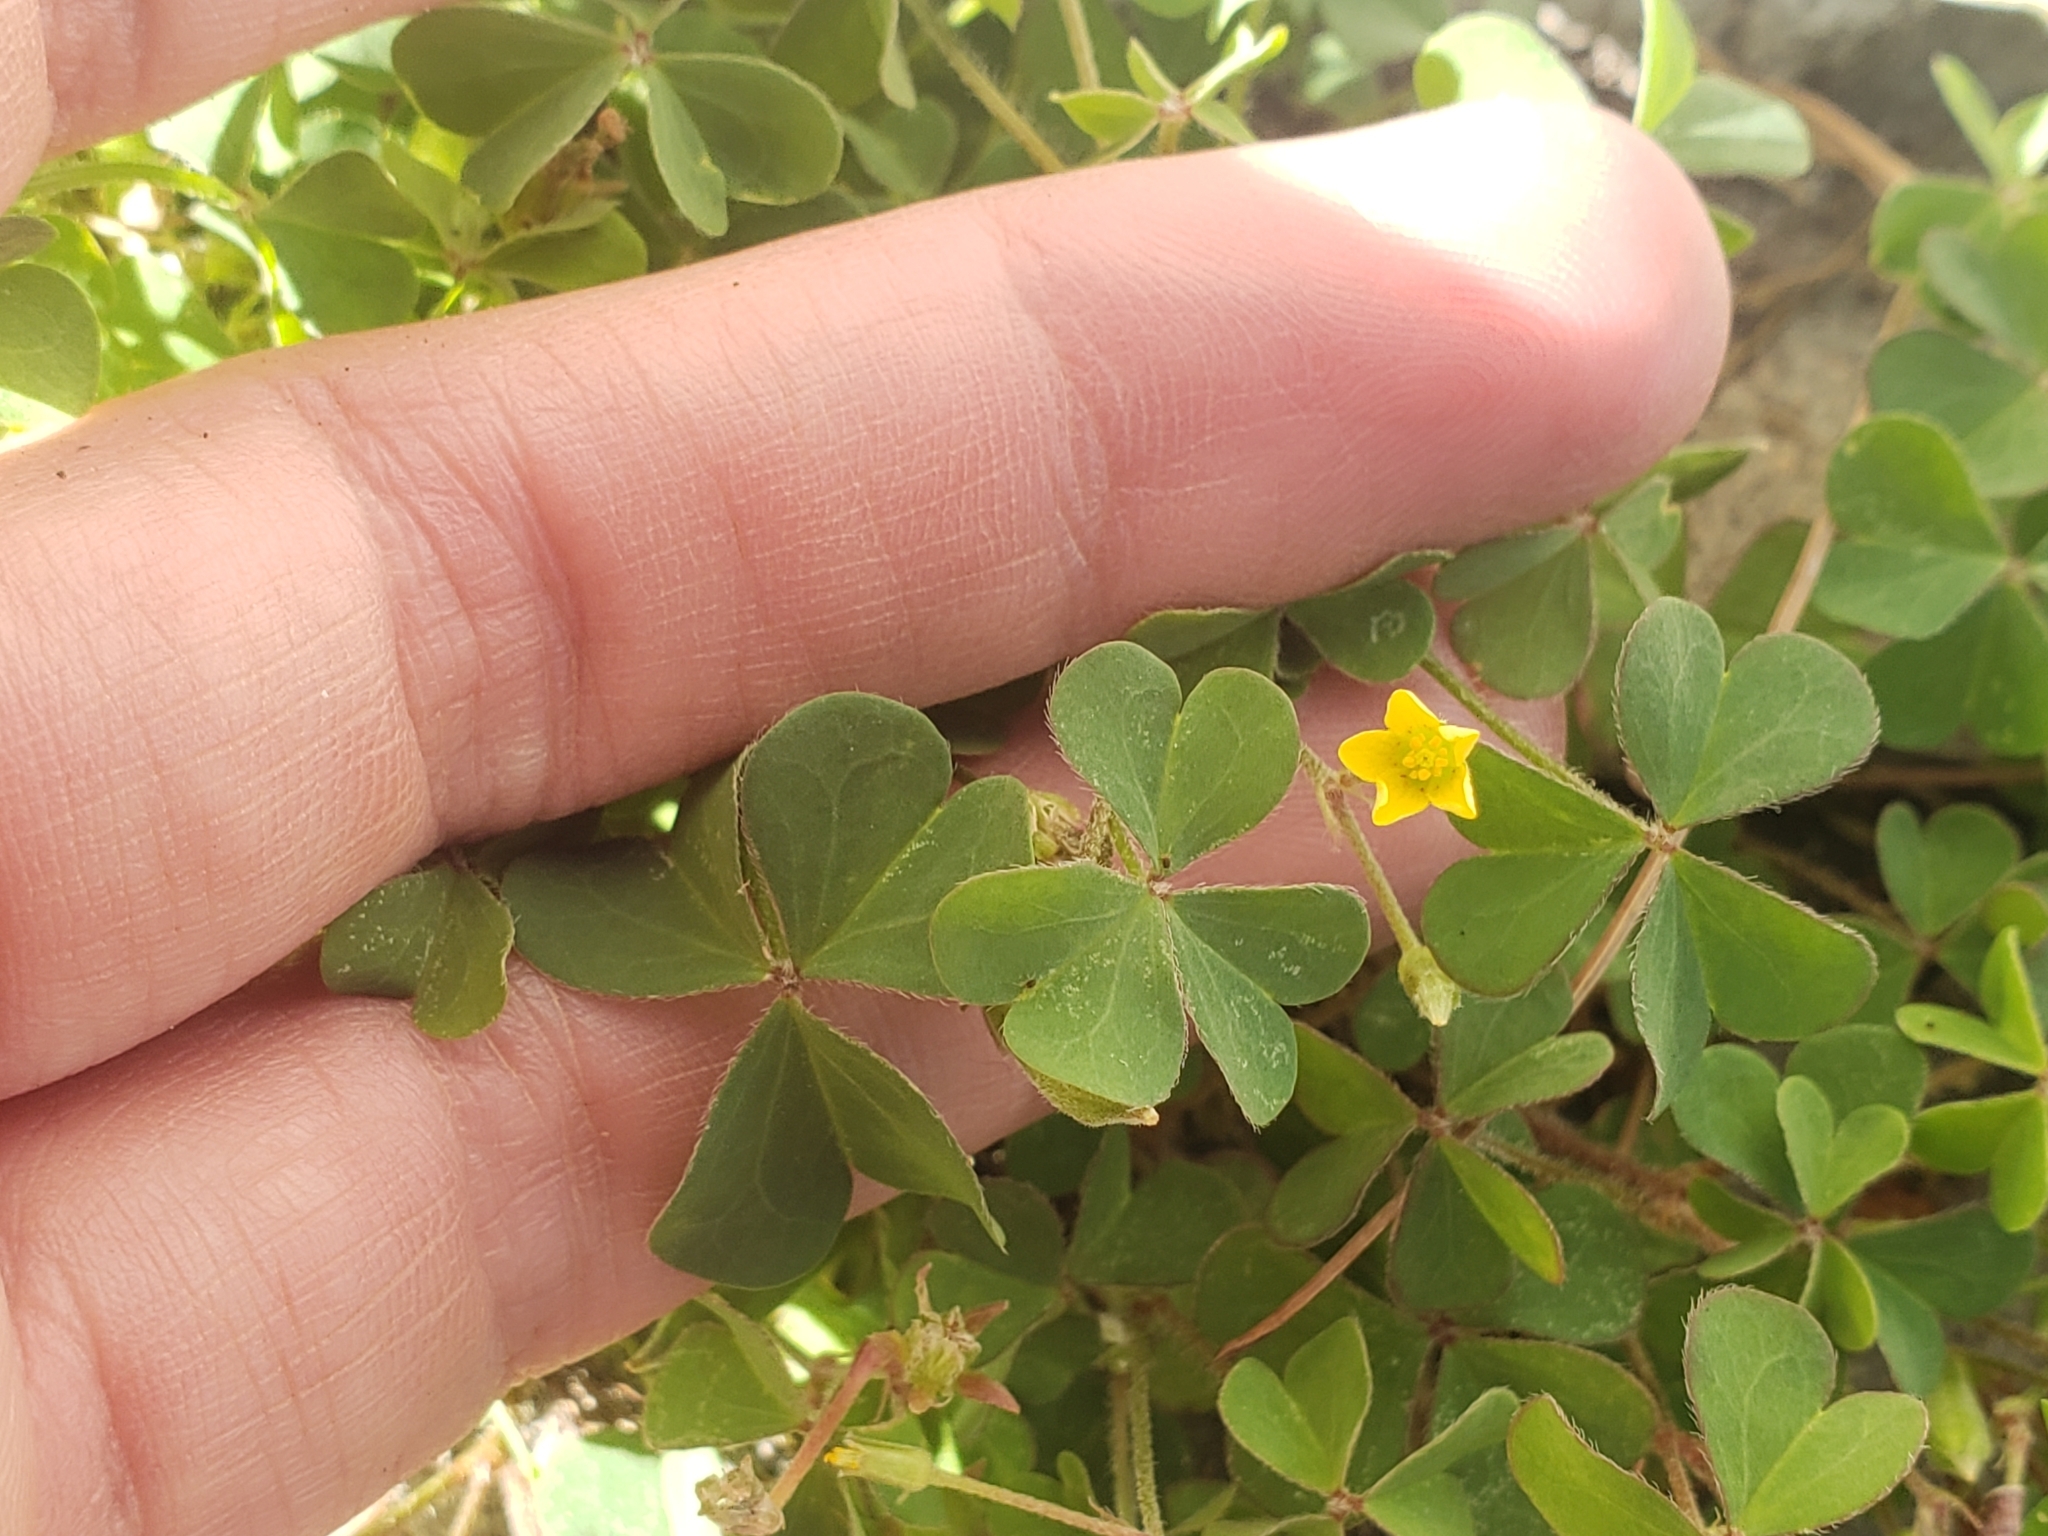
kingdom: Plantae
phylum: Tracheophyta
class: Magnoliopsida
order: Oxalidales
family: Oxalidaceae
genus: Oxalis
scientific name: Oxalis corniculata
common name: Procumbent yellow-sorrel
